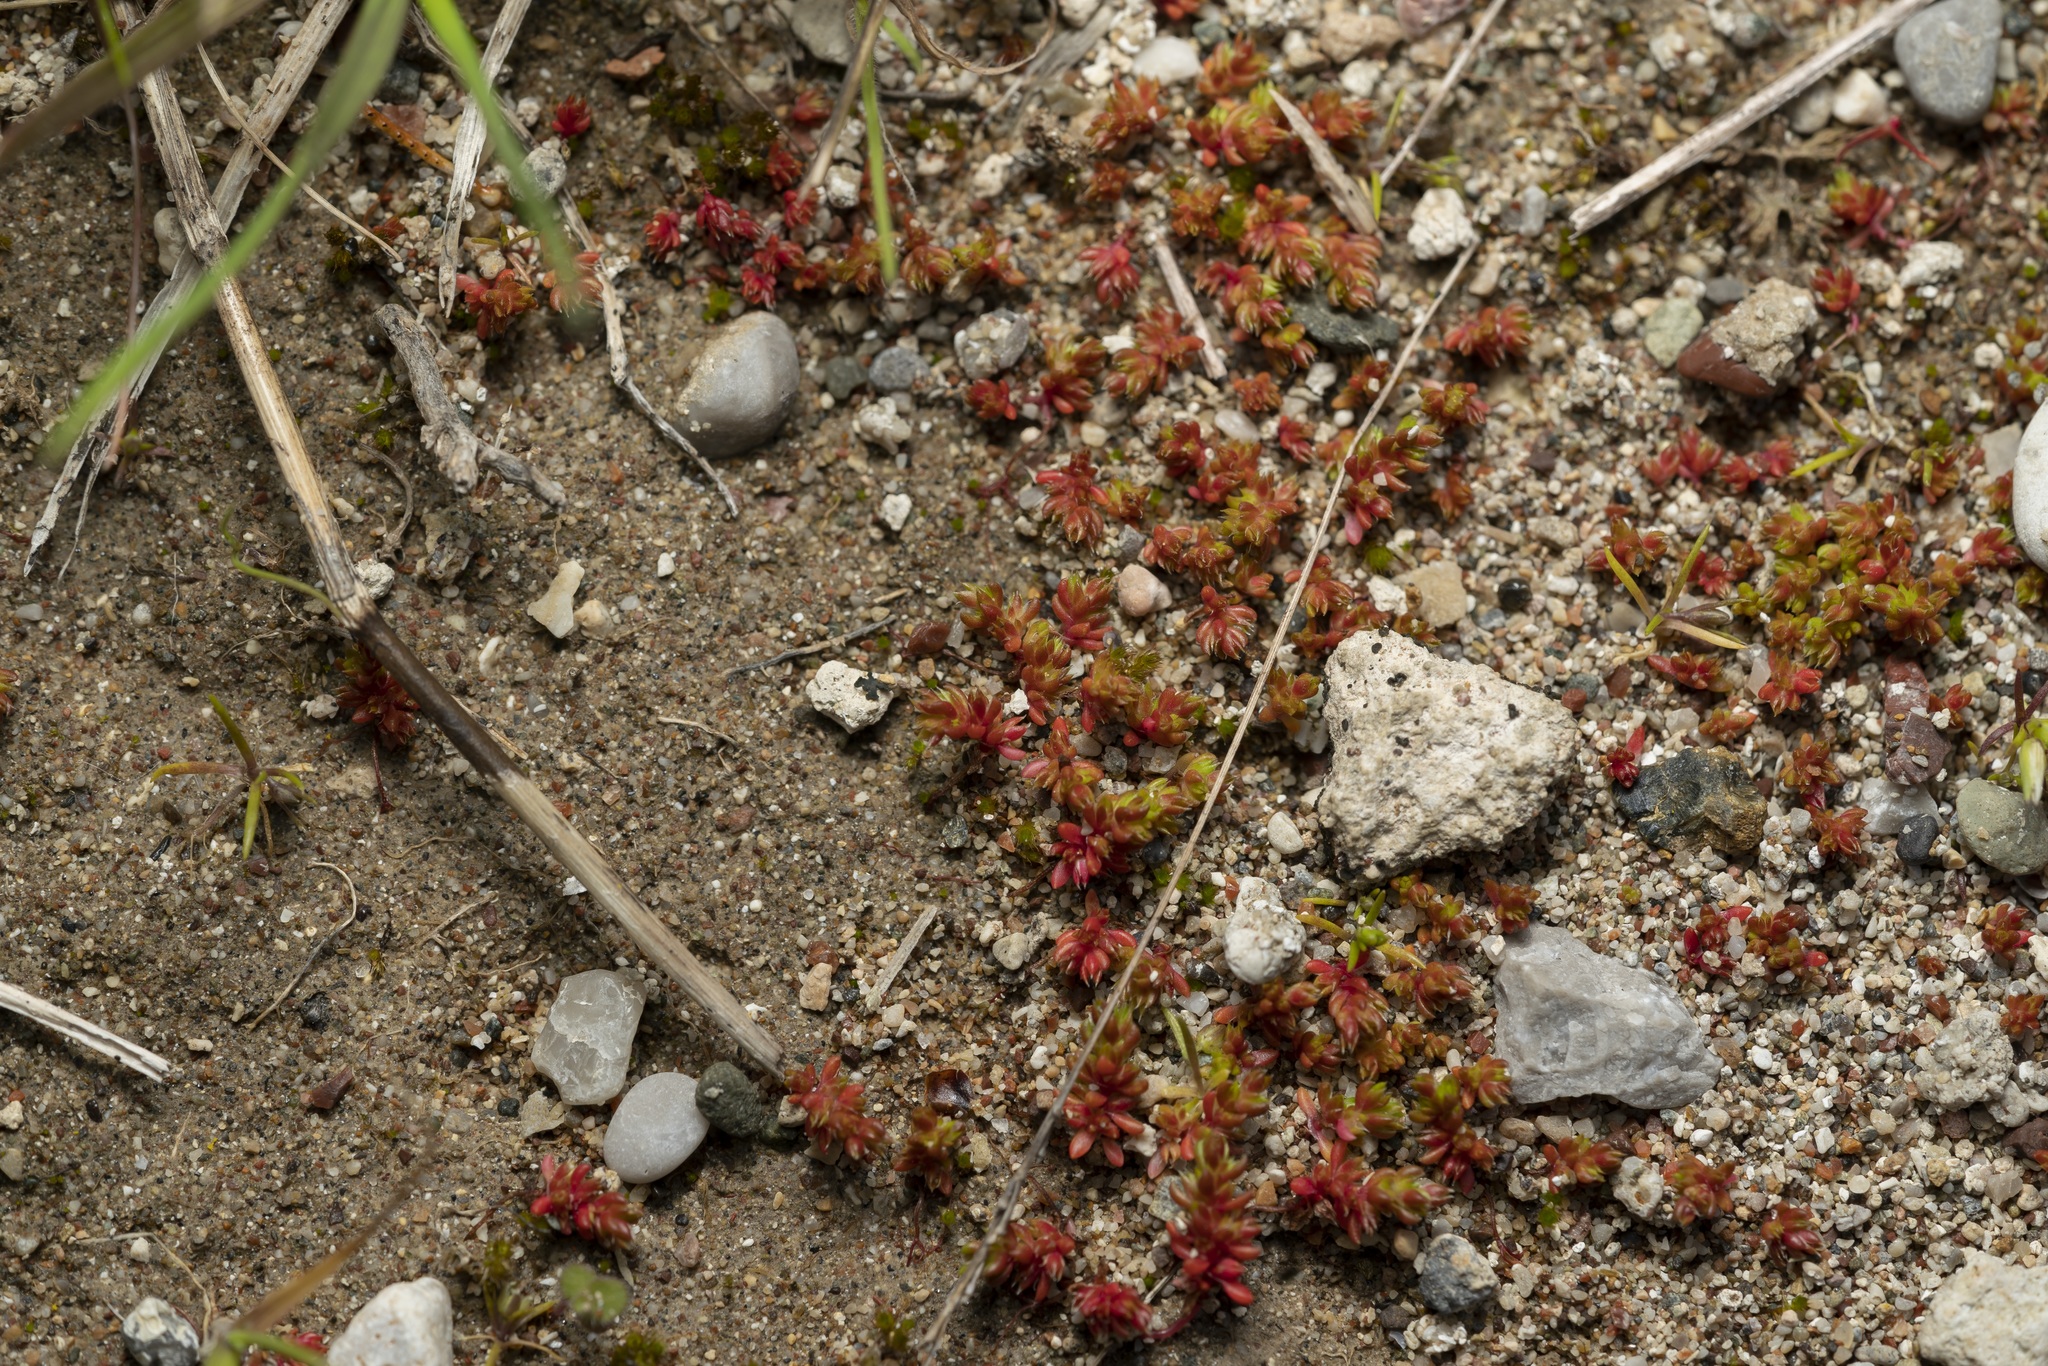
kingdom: Plantae
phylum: Tracheophyta
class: Magnoliopsida
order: Saxifragales
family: Crassulaceae
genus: Crassula
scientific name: Crassula tillaea
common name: Mossy stonecrop
